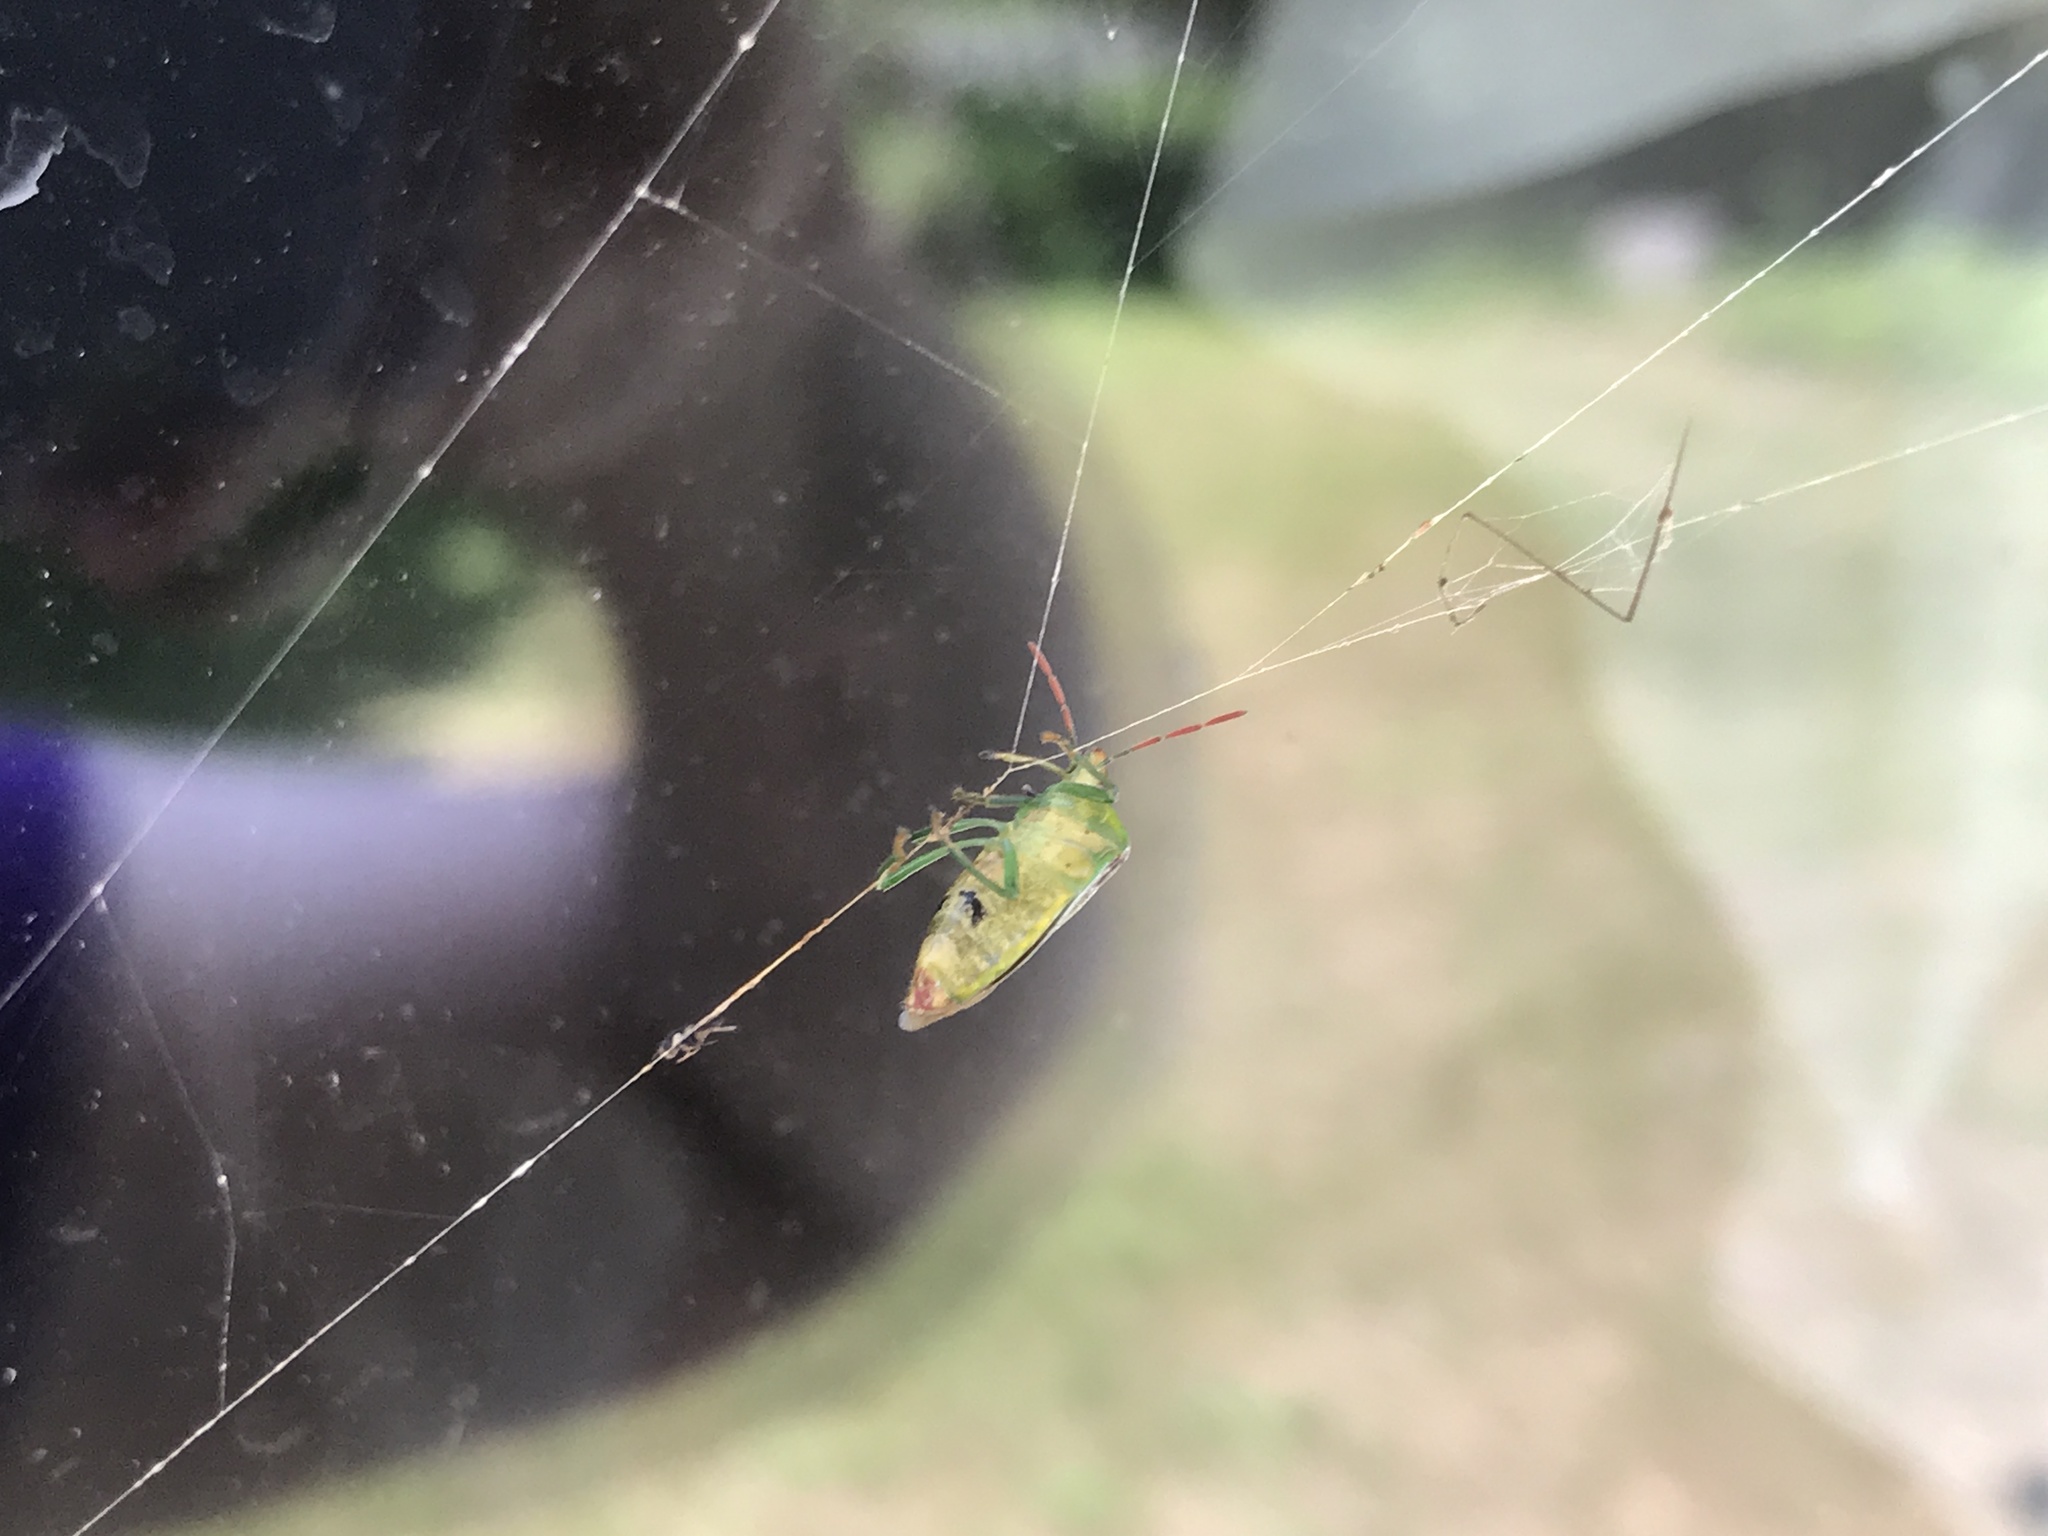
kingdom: Animalia
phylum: Arthropoda
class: Insecta
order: Hemiptera
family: Pentatomidae
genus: Banasa
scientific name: Banasa dimidiata
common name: Green burgundy stink bug
